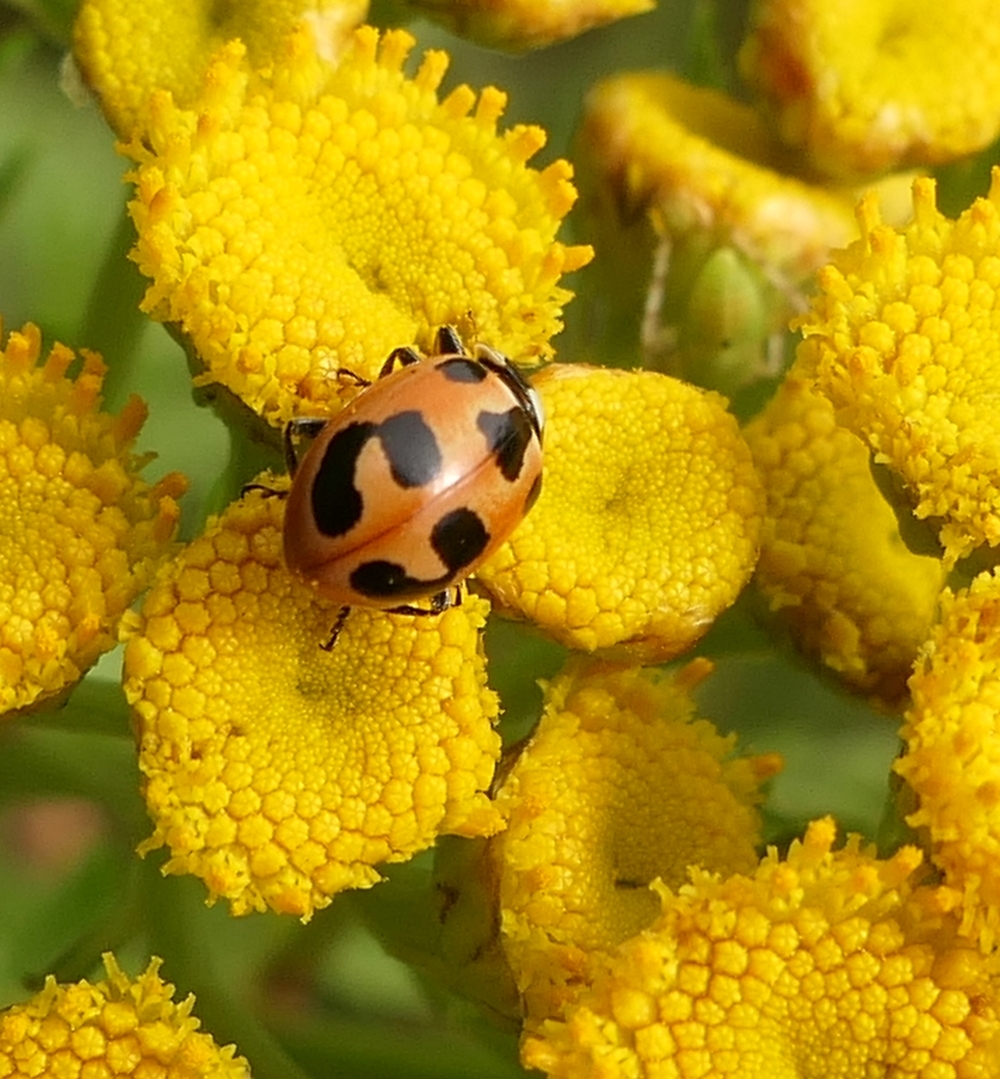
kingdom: Animalia
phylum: Arthropoda
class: Insecta
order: Coleoptera
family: Coccinellidae
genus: Hippodamia
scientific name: Hippodamia parenthesis
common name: Parenthesis lady beetle
